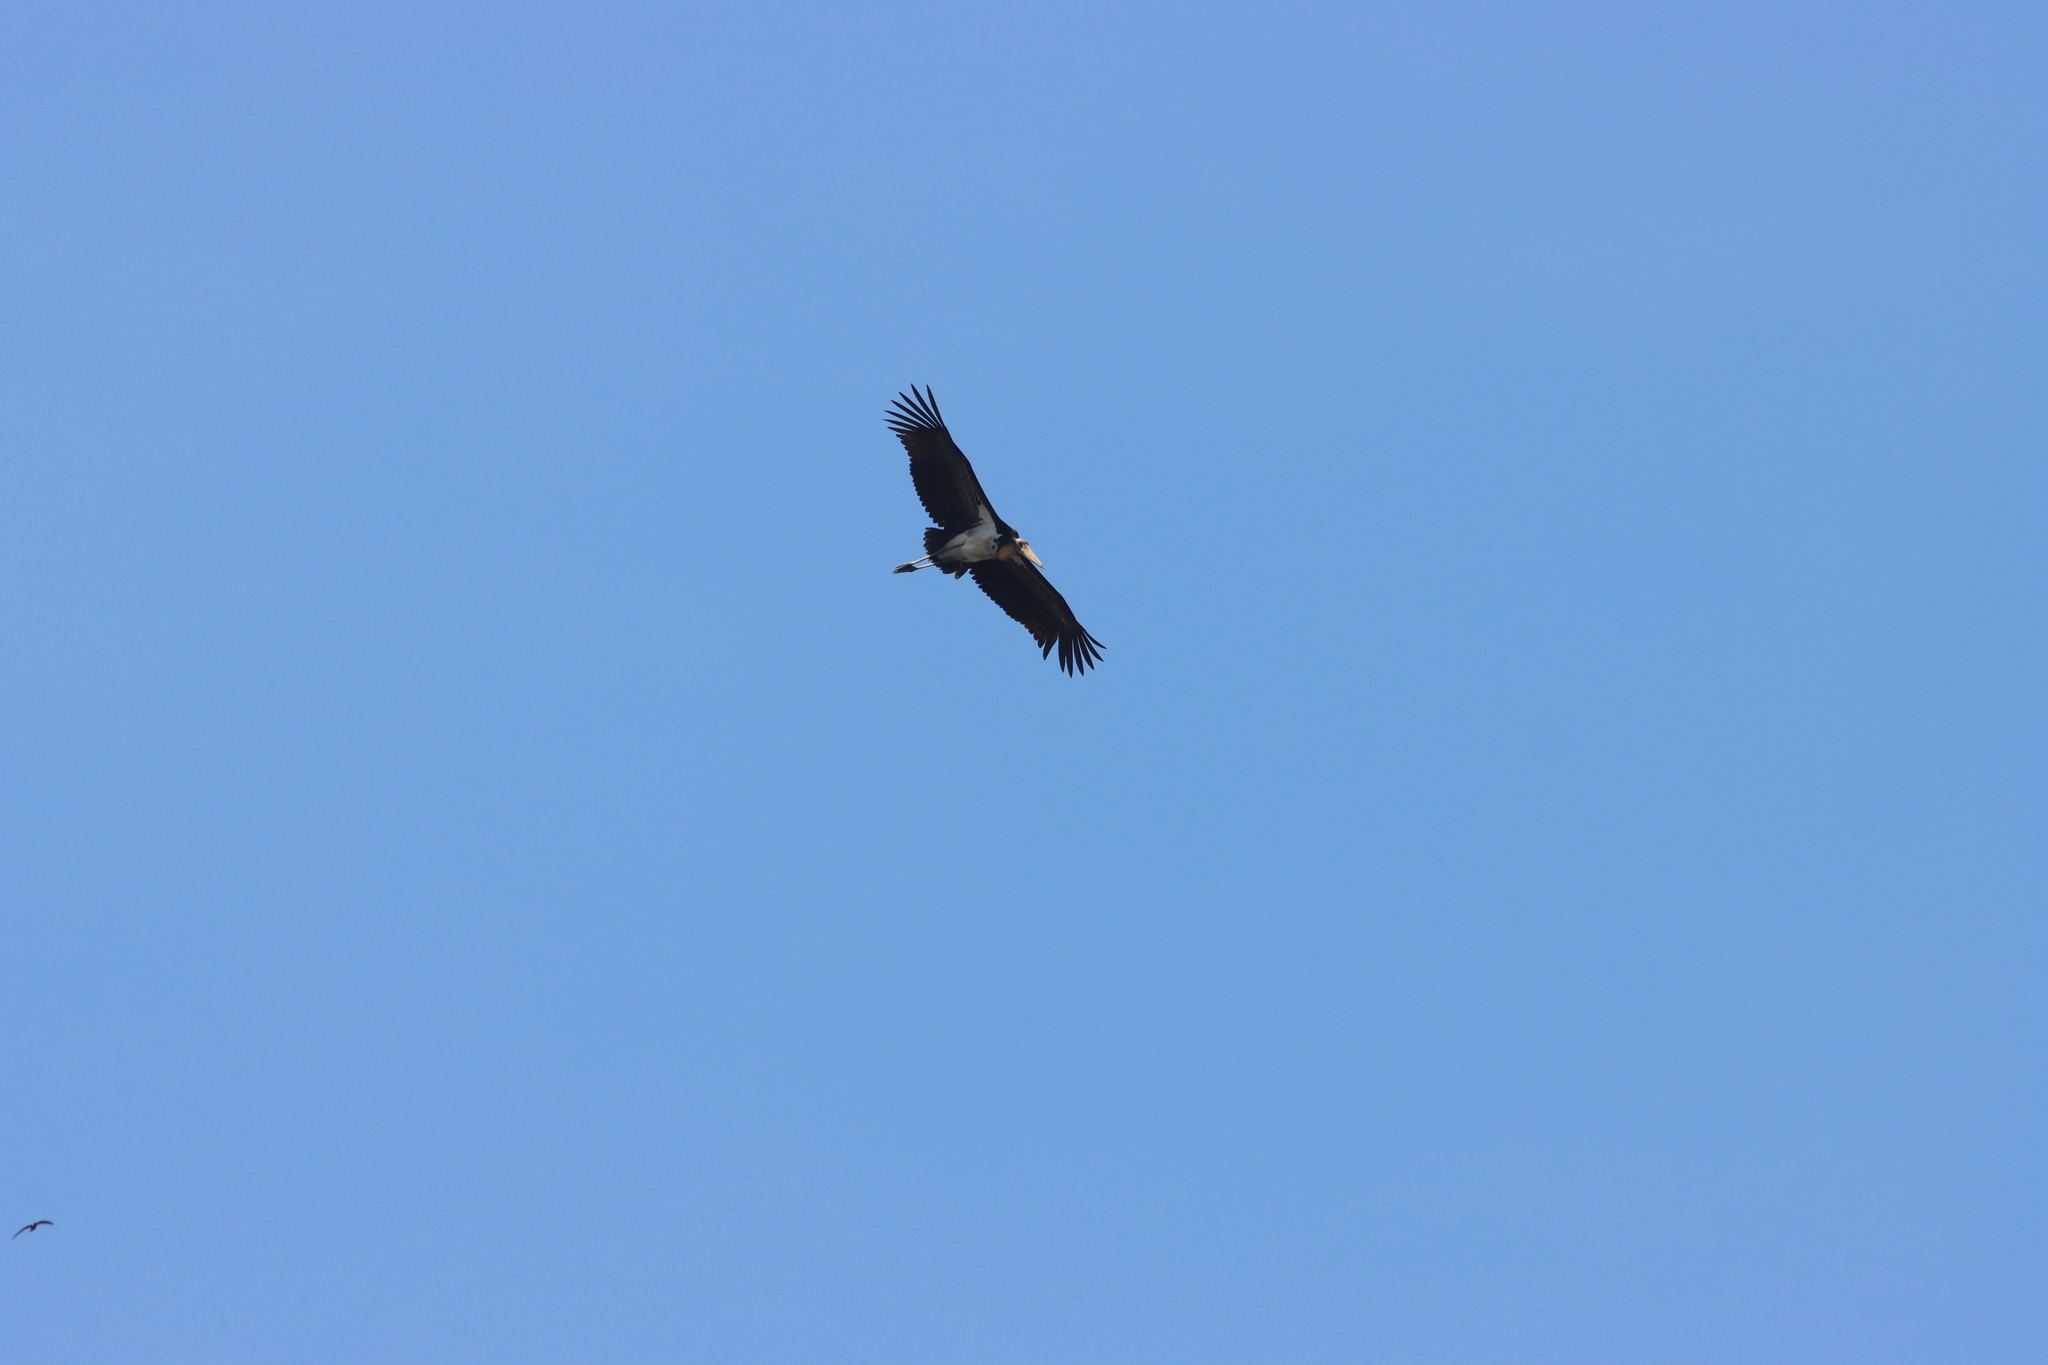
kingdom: Animalia
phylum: Chordata
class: Aves
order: Ciconiiformes
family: Ciconiidae
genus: Leptoptilos
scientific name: Leptoptilos javanicus
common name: Lesser adjutant
